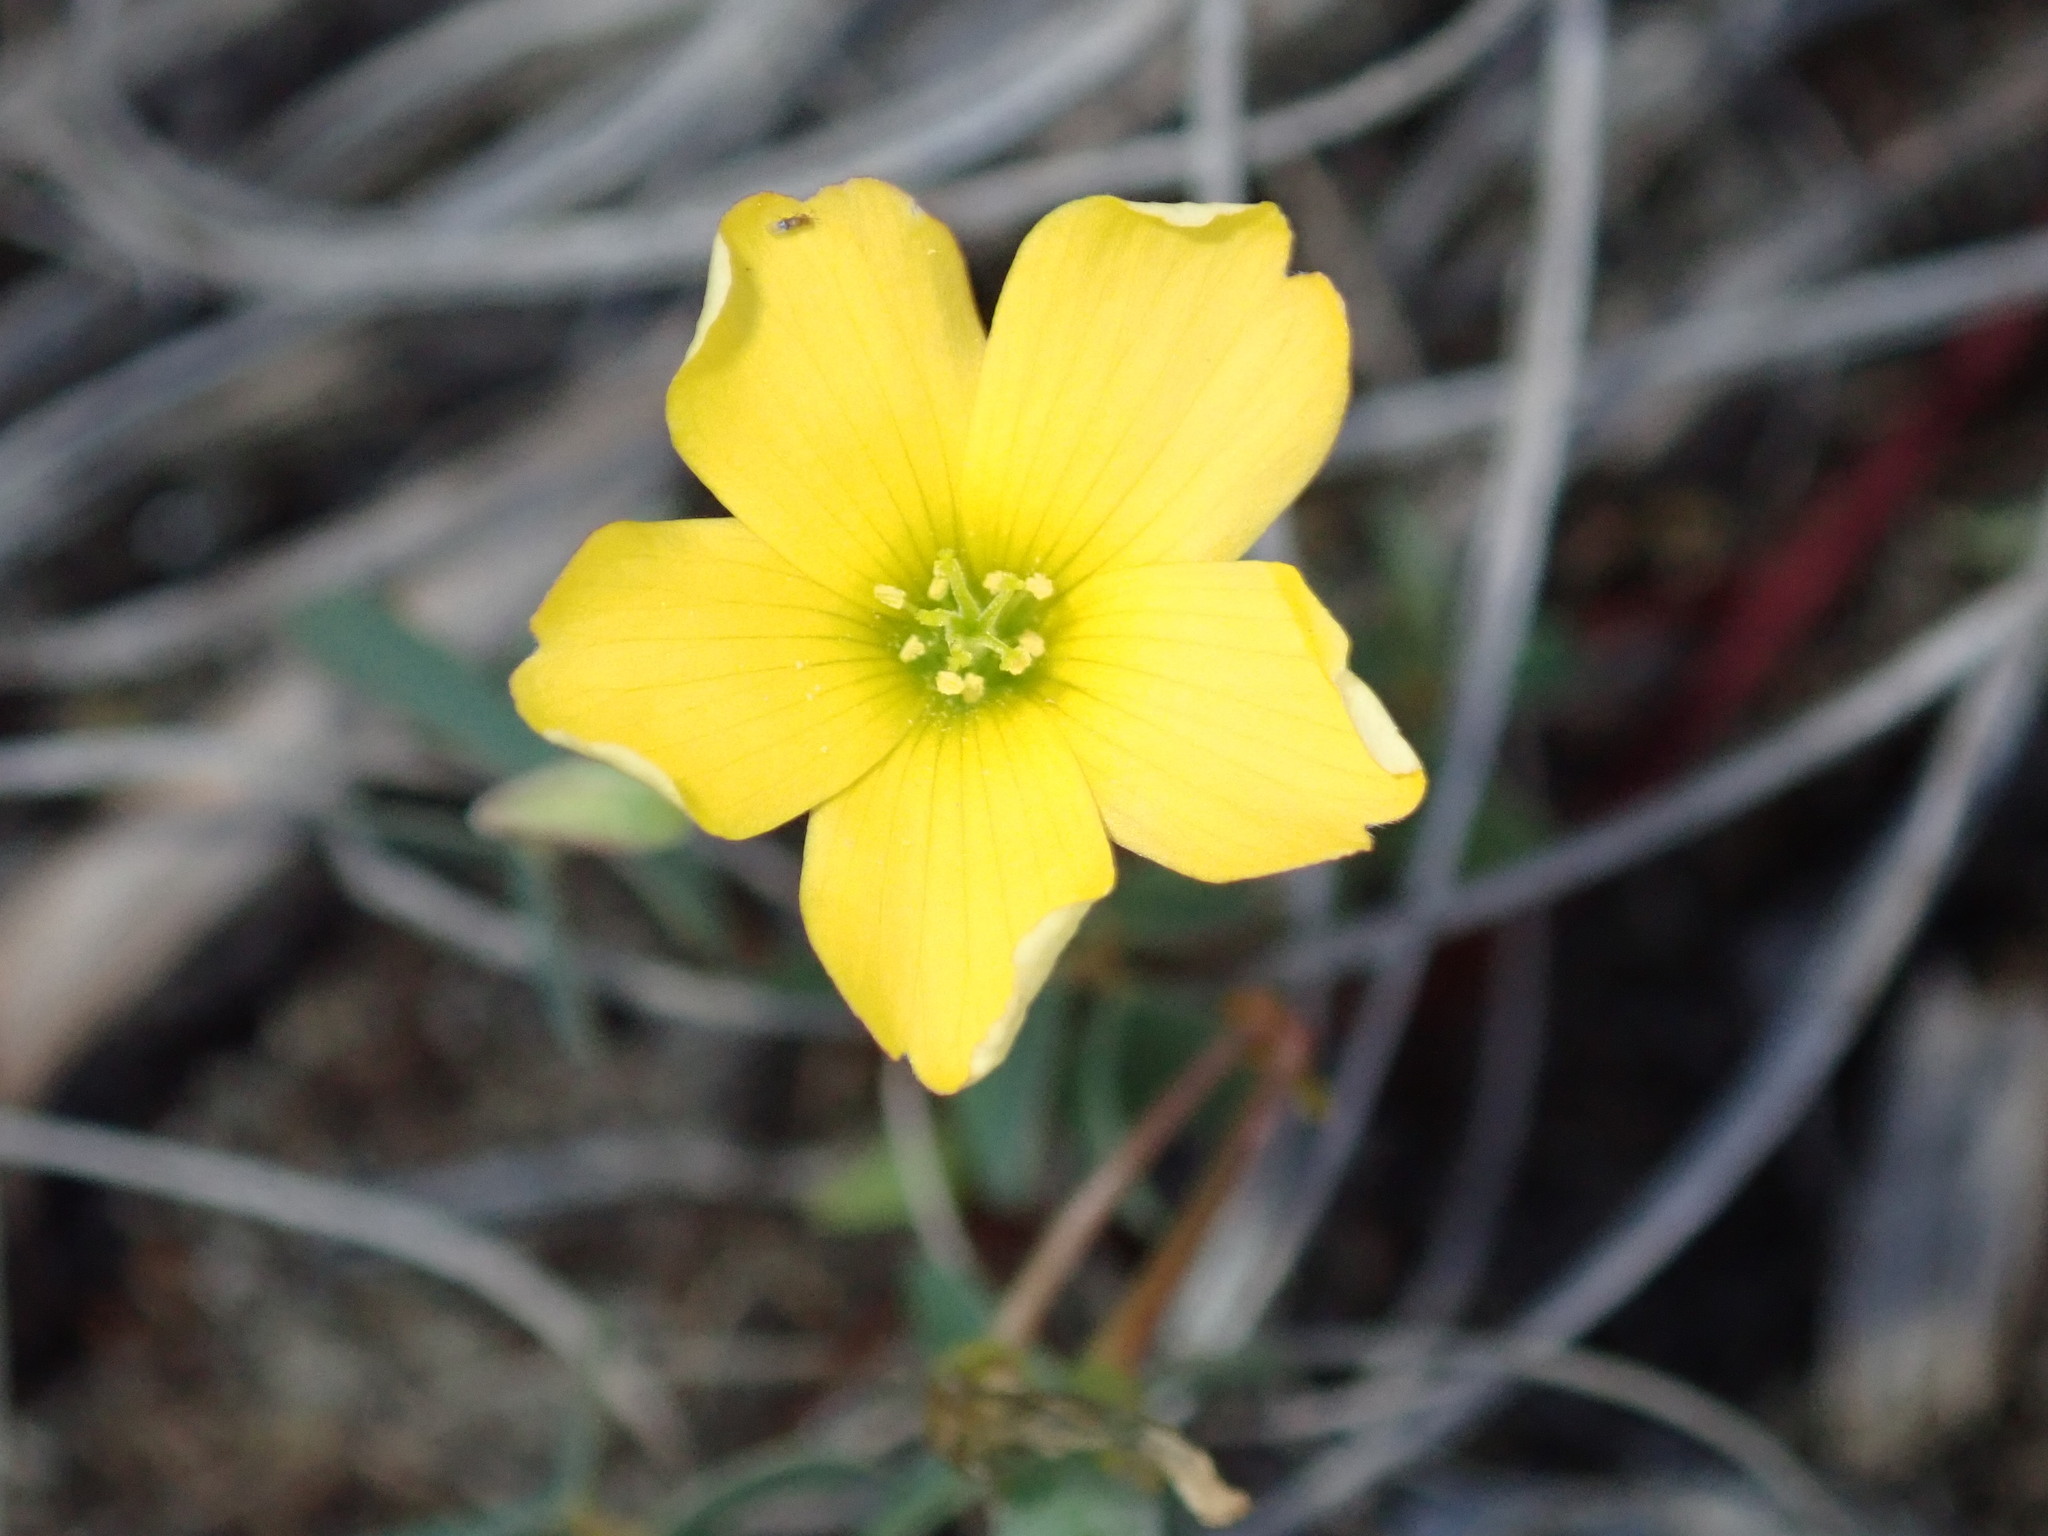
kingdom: Plantae
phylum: Tracheophyta
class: Magnoliopsida
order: Oxalidales
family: Oxalidaceae
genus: Oxalis
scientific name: Oxalis corniculata
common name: Procumbent yellow-sorrel
